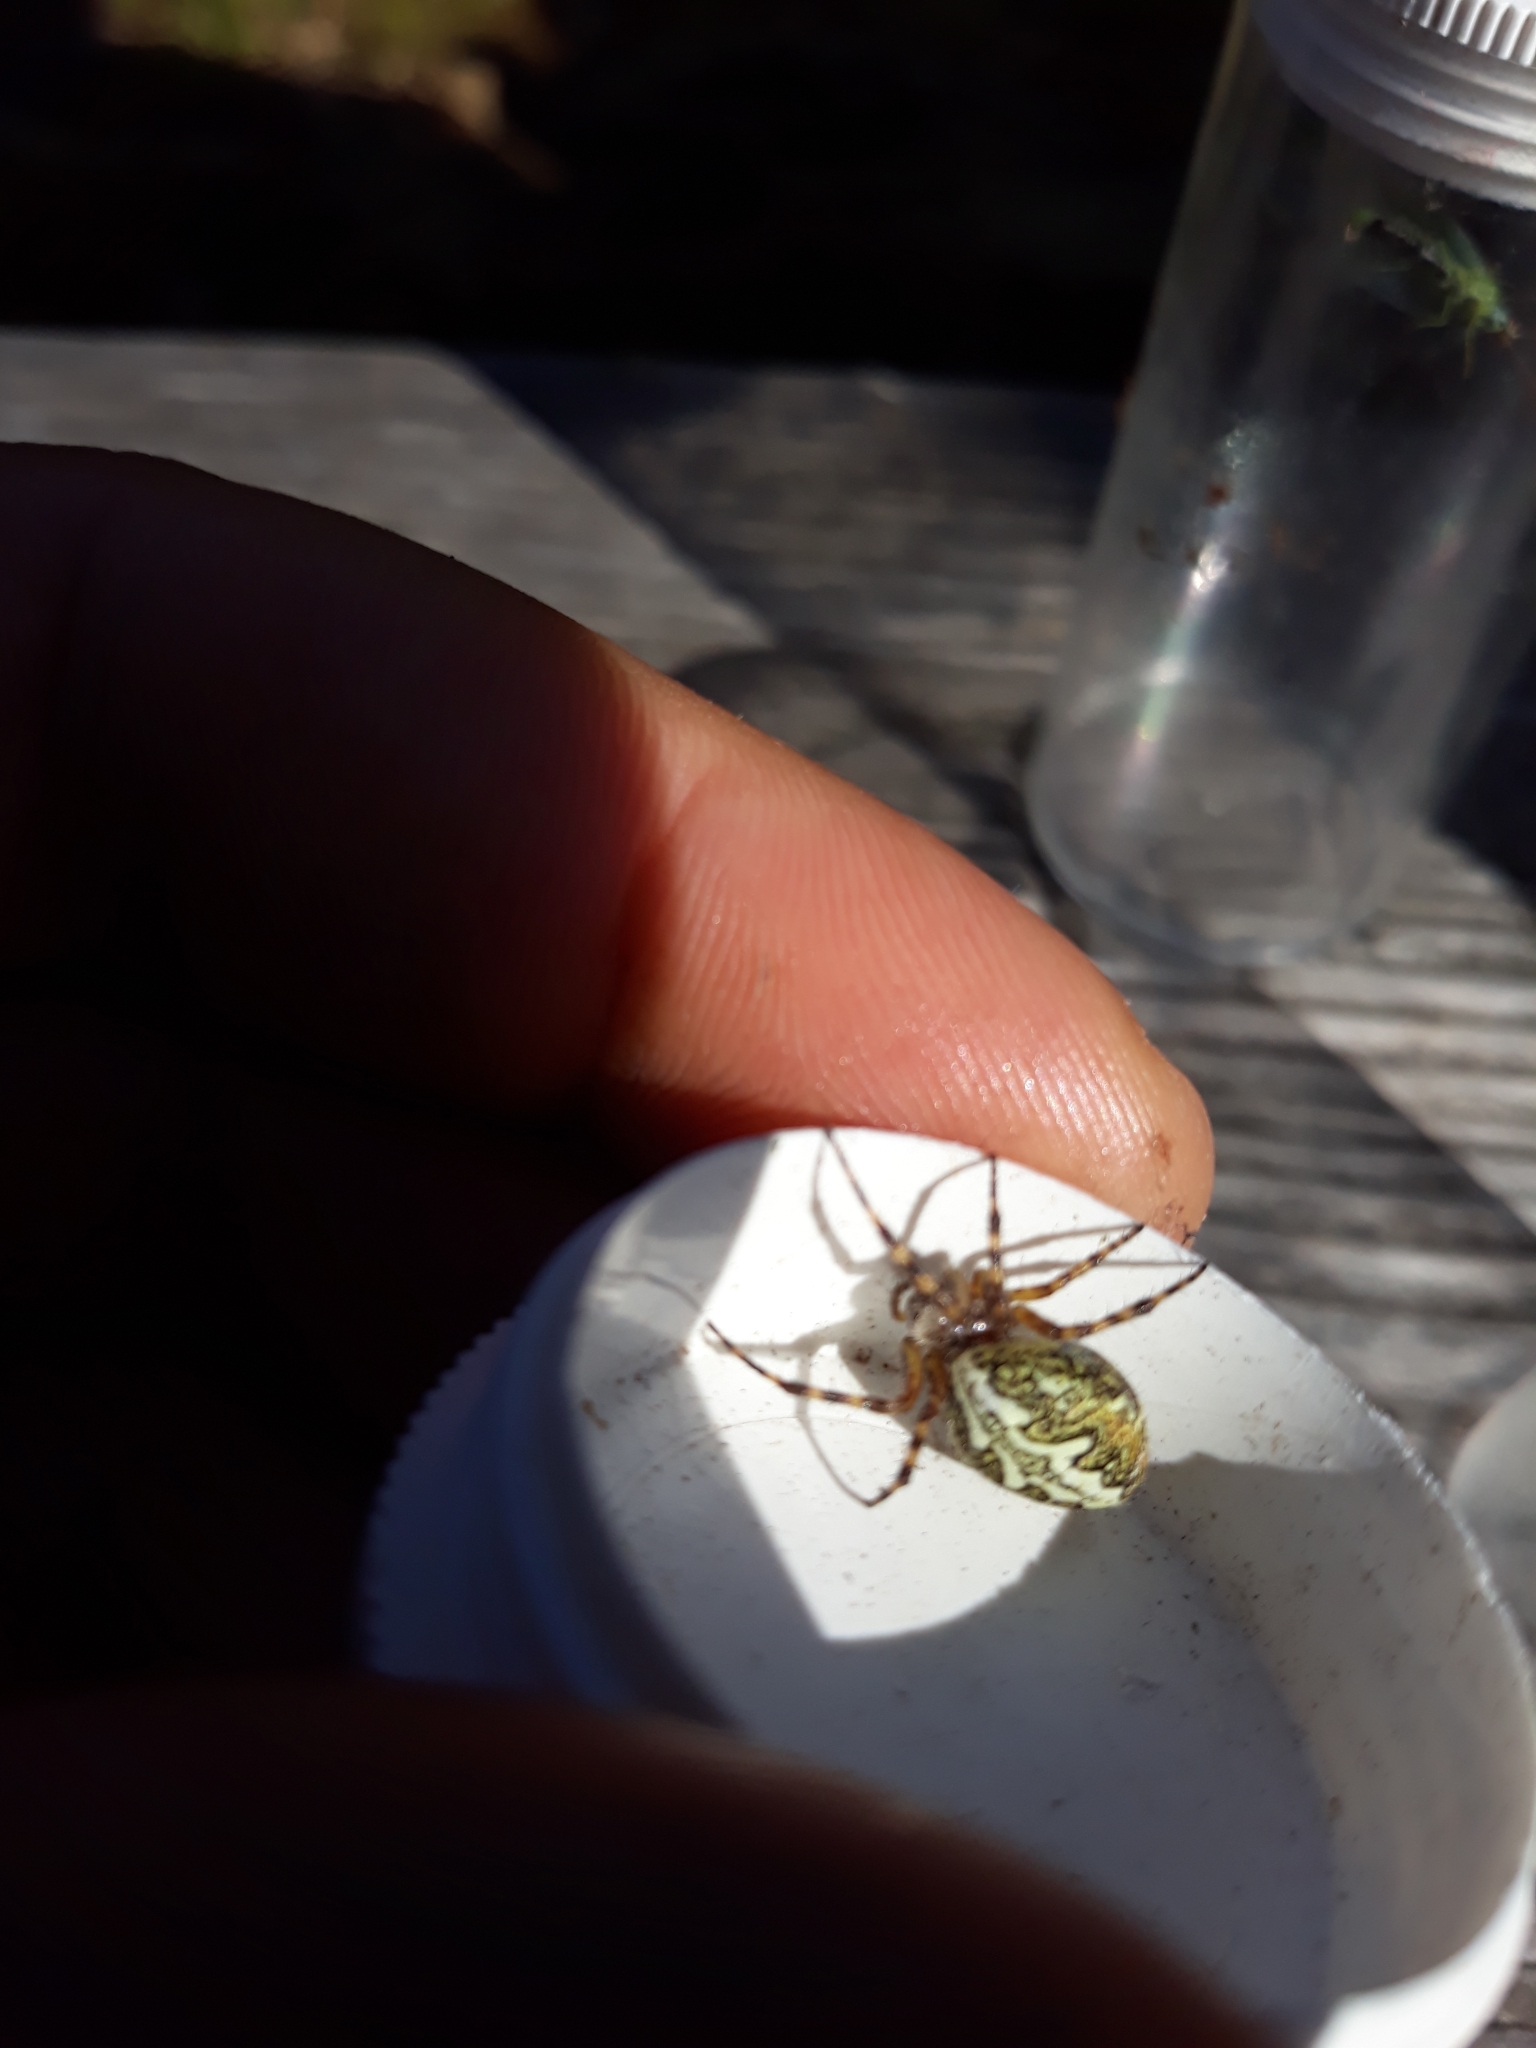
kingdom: Animalia
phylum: Arthropoda
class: Arachnida
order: Araneae
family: Araneidae
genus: Aculepeira
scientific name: Aculepeira ceropegia
